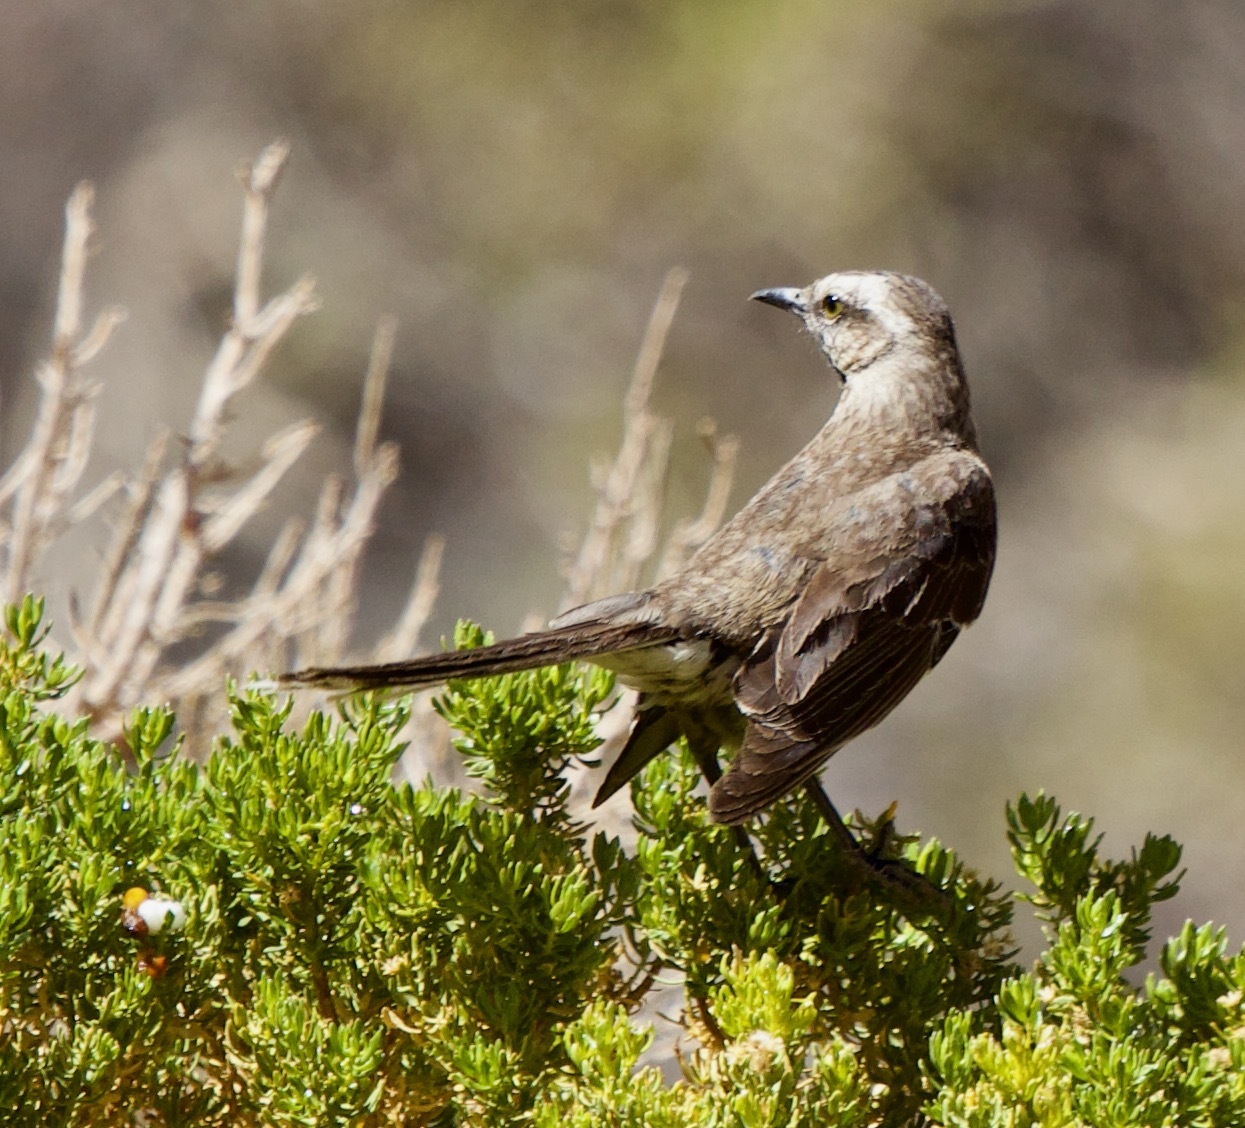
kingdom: Animalia
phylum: Chordata
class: Aves
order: Passeriformes
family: Mimidae
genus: Mimus
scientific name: Mimus thenca
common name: Chilean mockingbird
